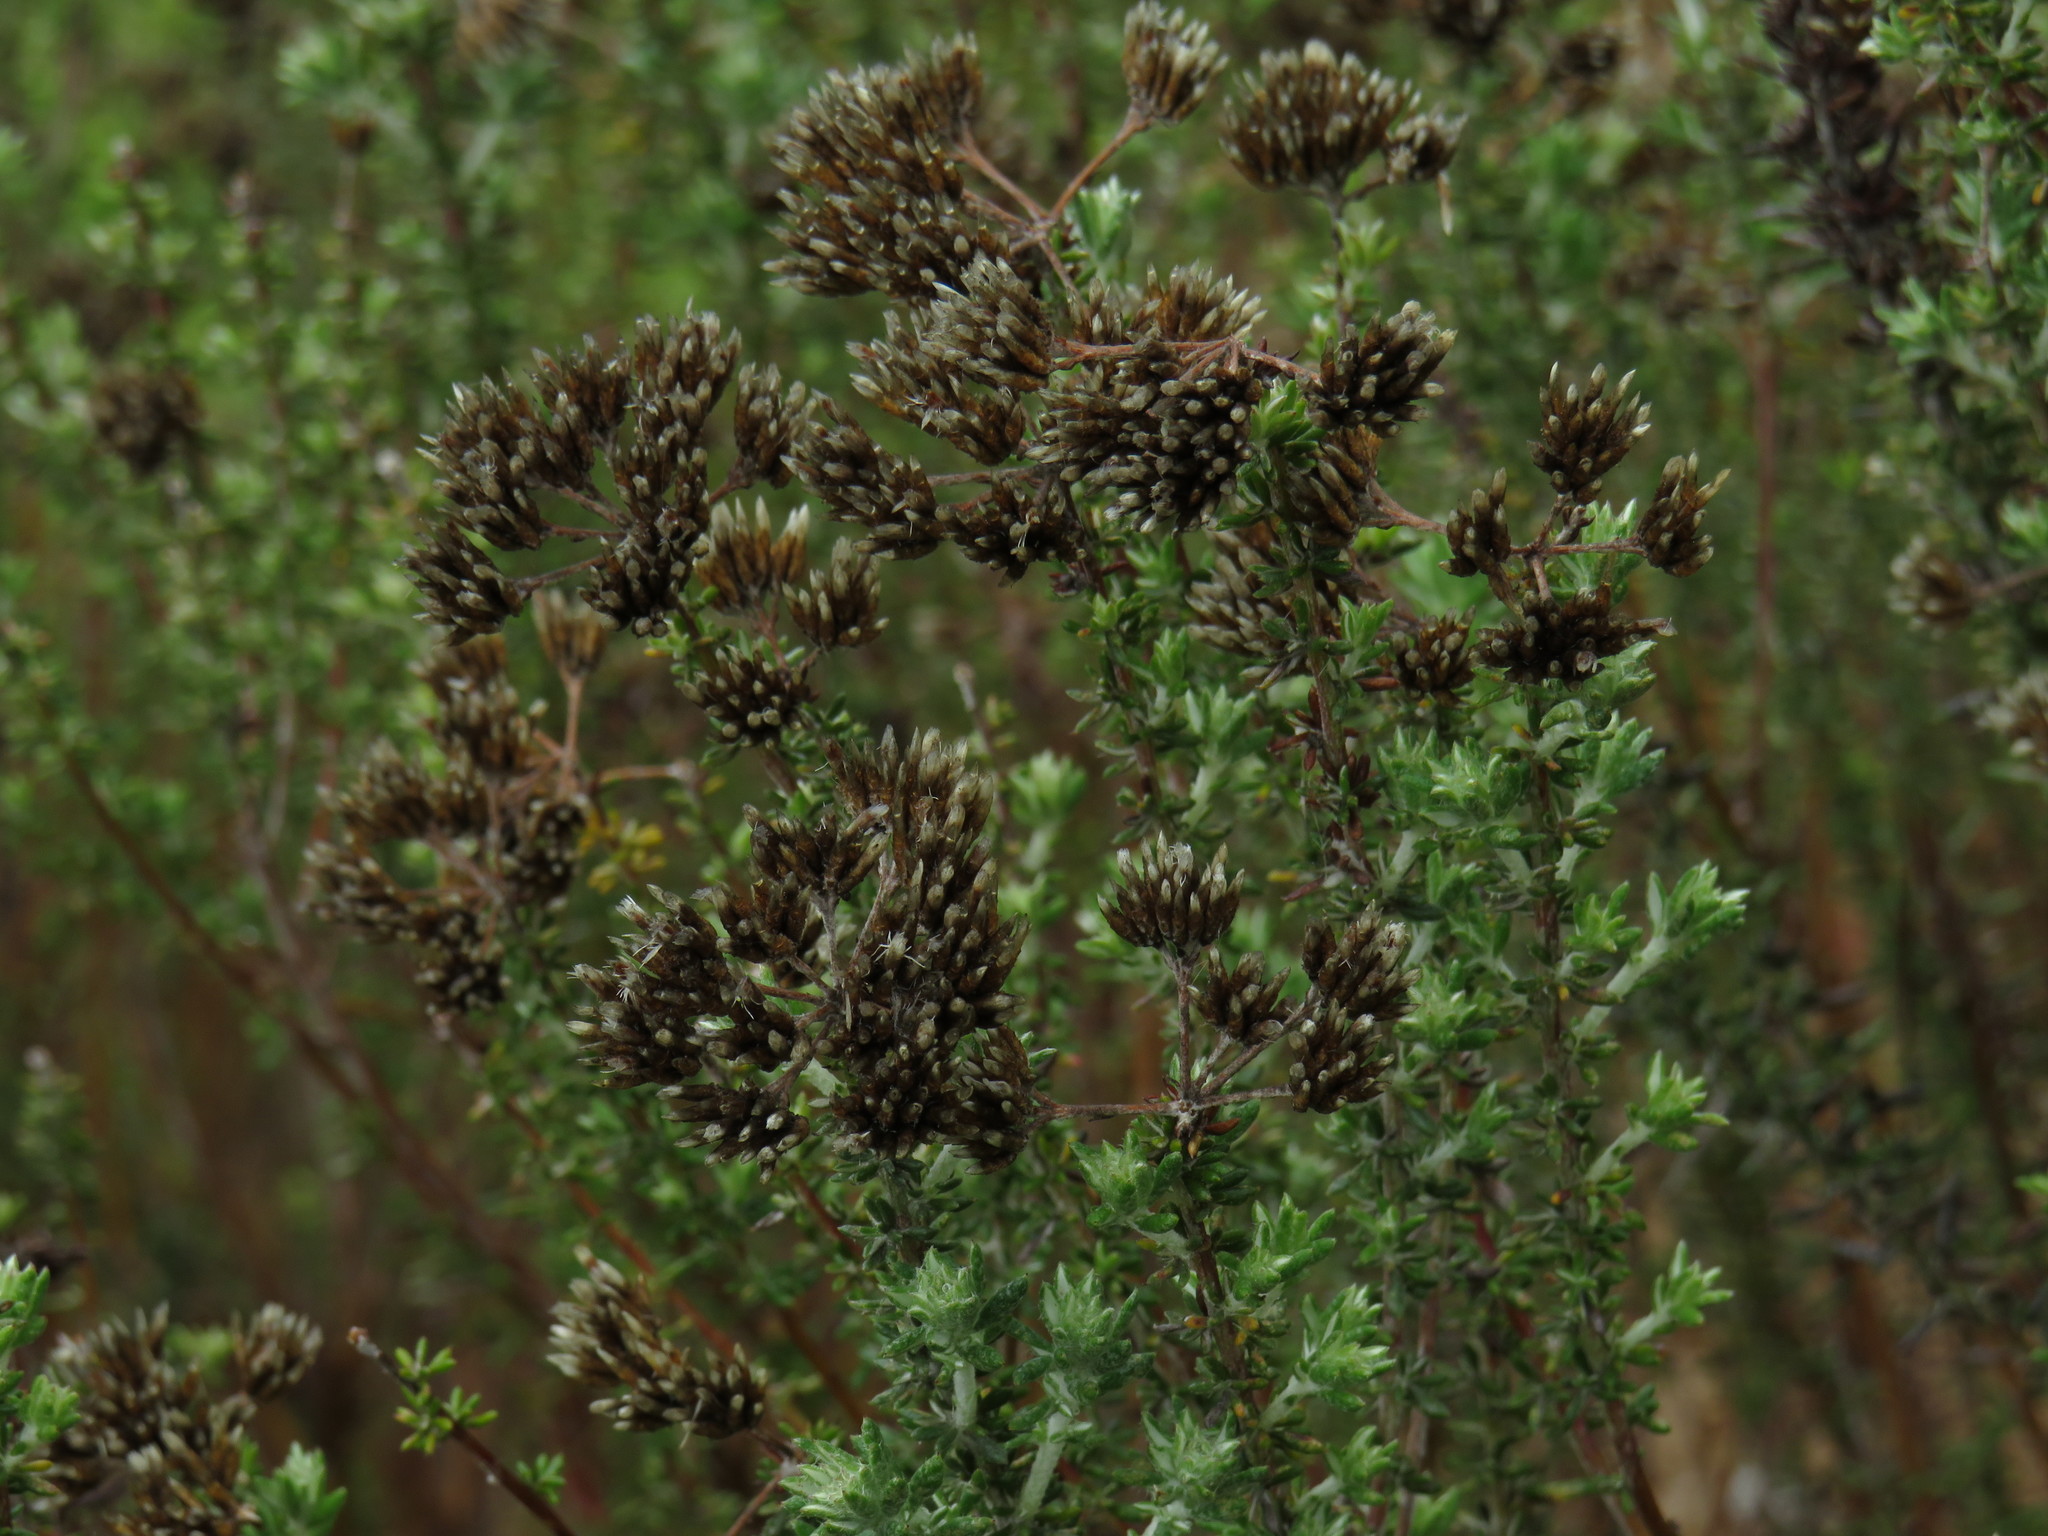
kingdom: Plantae
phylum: Tracheophyta
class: Magnoliopsida
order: Asterales
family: Asteraceae
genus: Metalasia
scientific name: Metalasia densa
